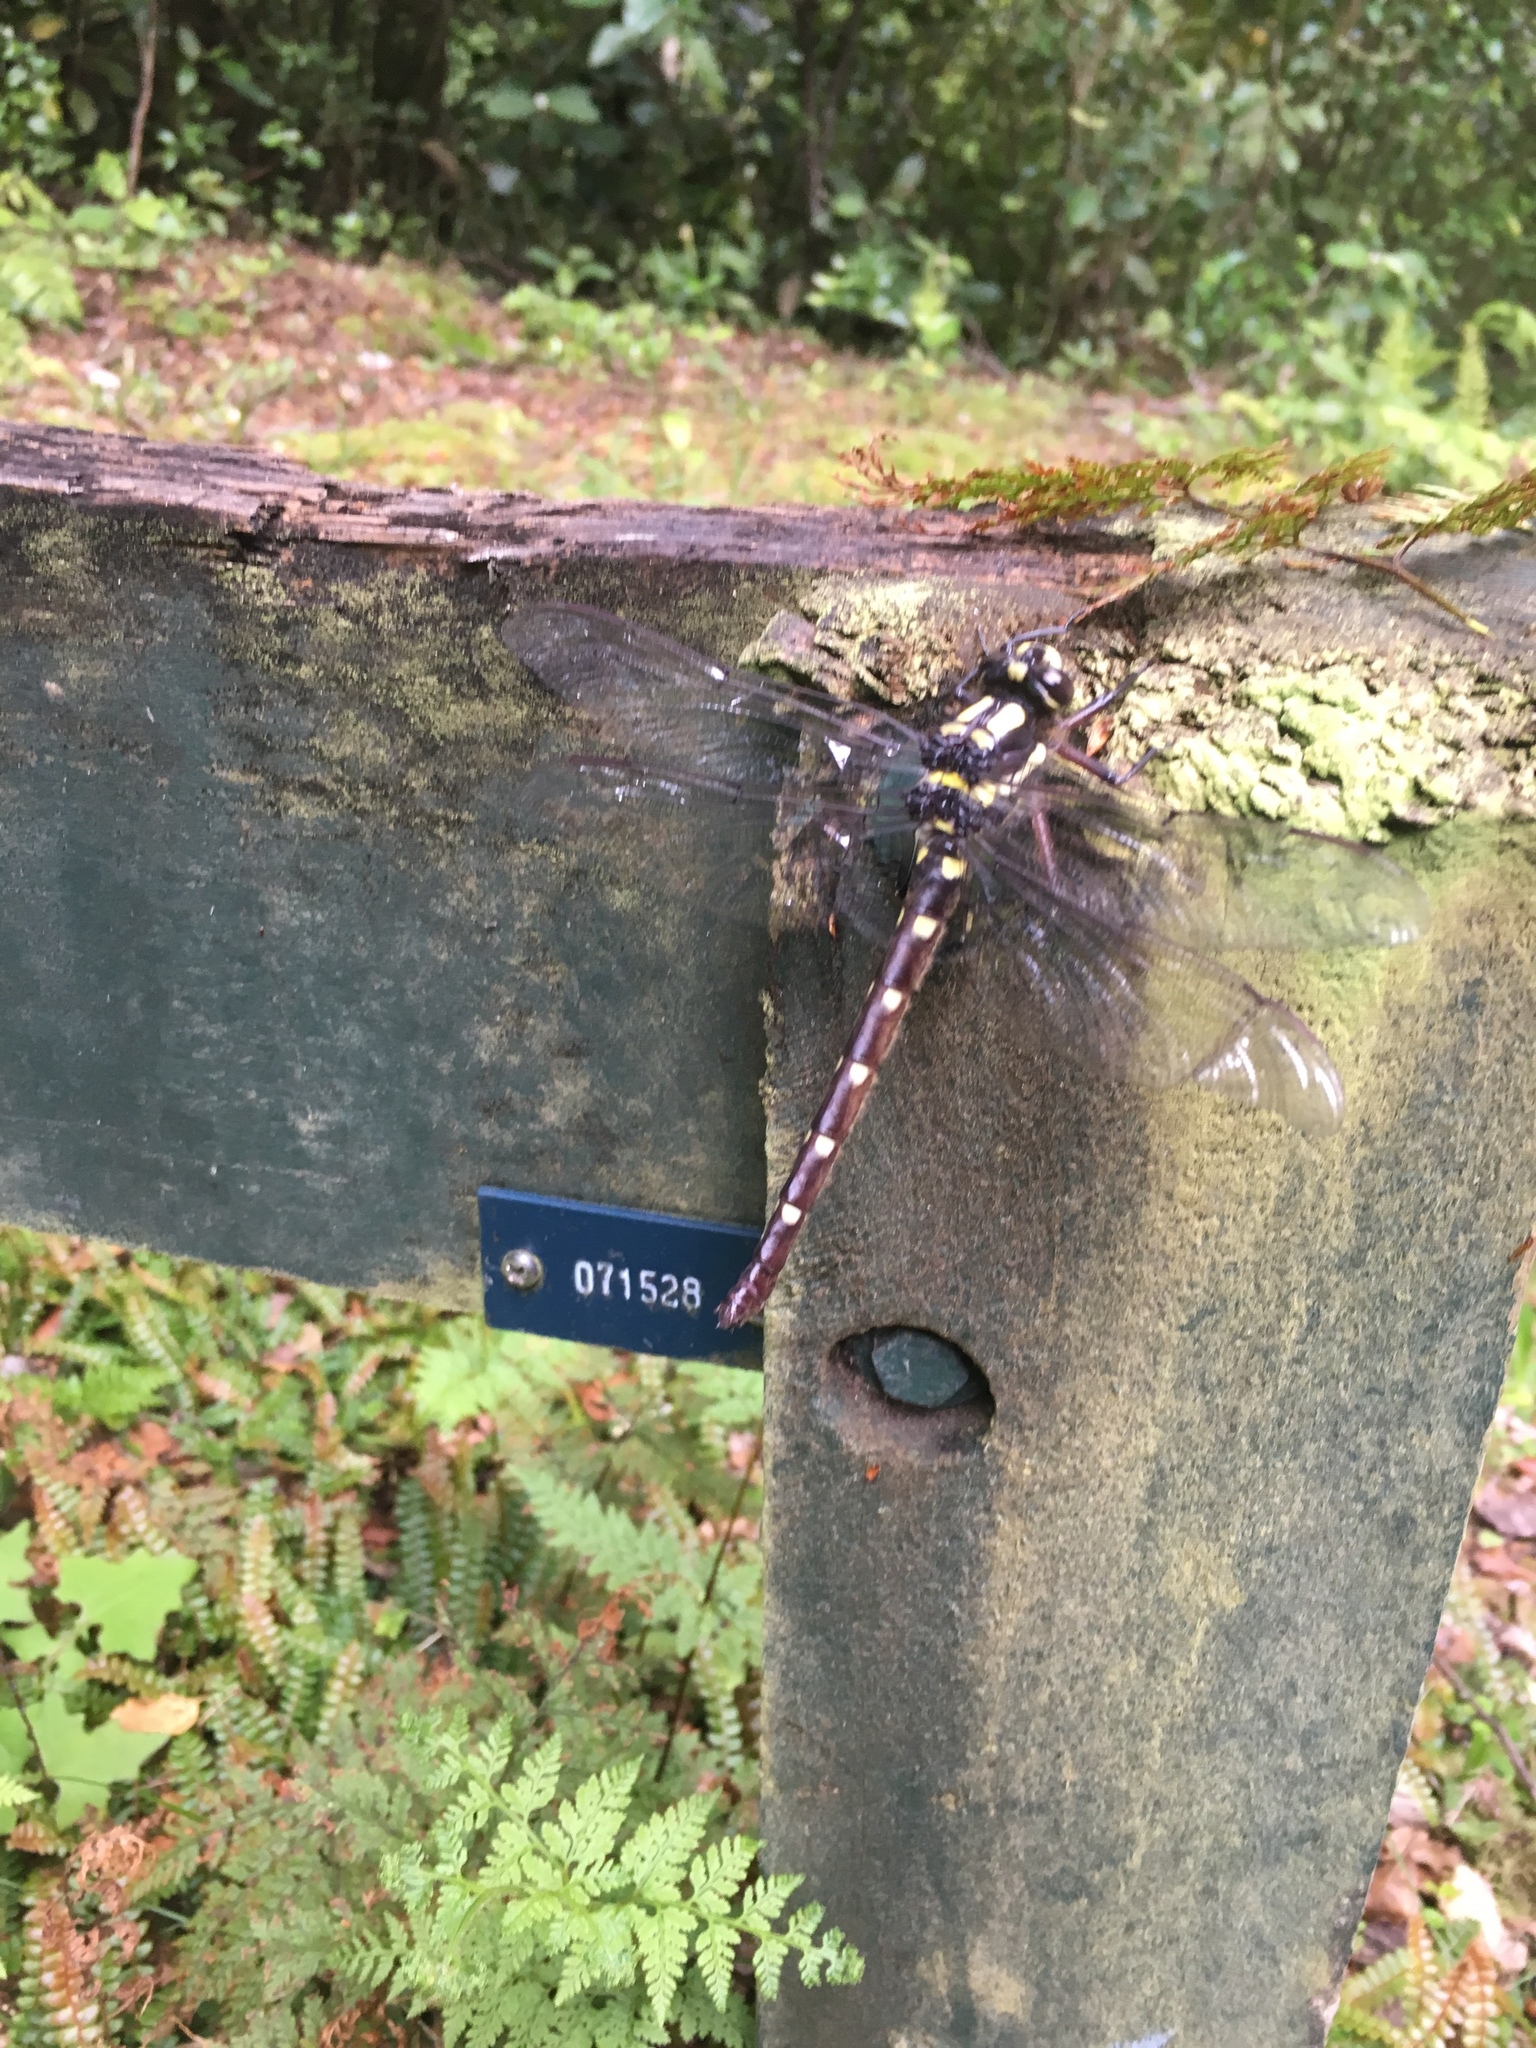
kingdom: Animalia
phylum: Arthropoda
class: Insecta
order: Odonata
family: Petaluridae
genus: Uropetala
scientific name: Uropetala carovei
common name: Bush giant dragonfly
